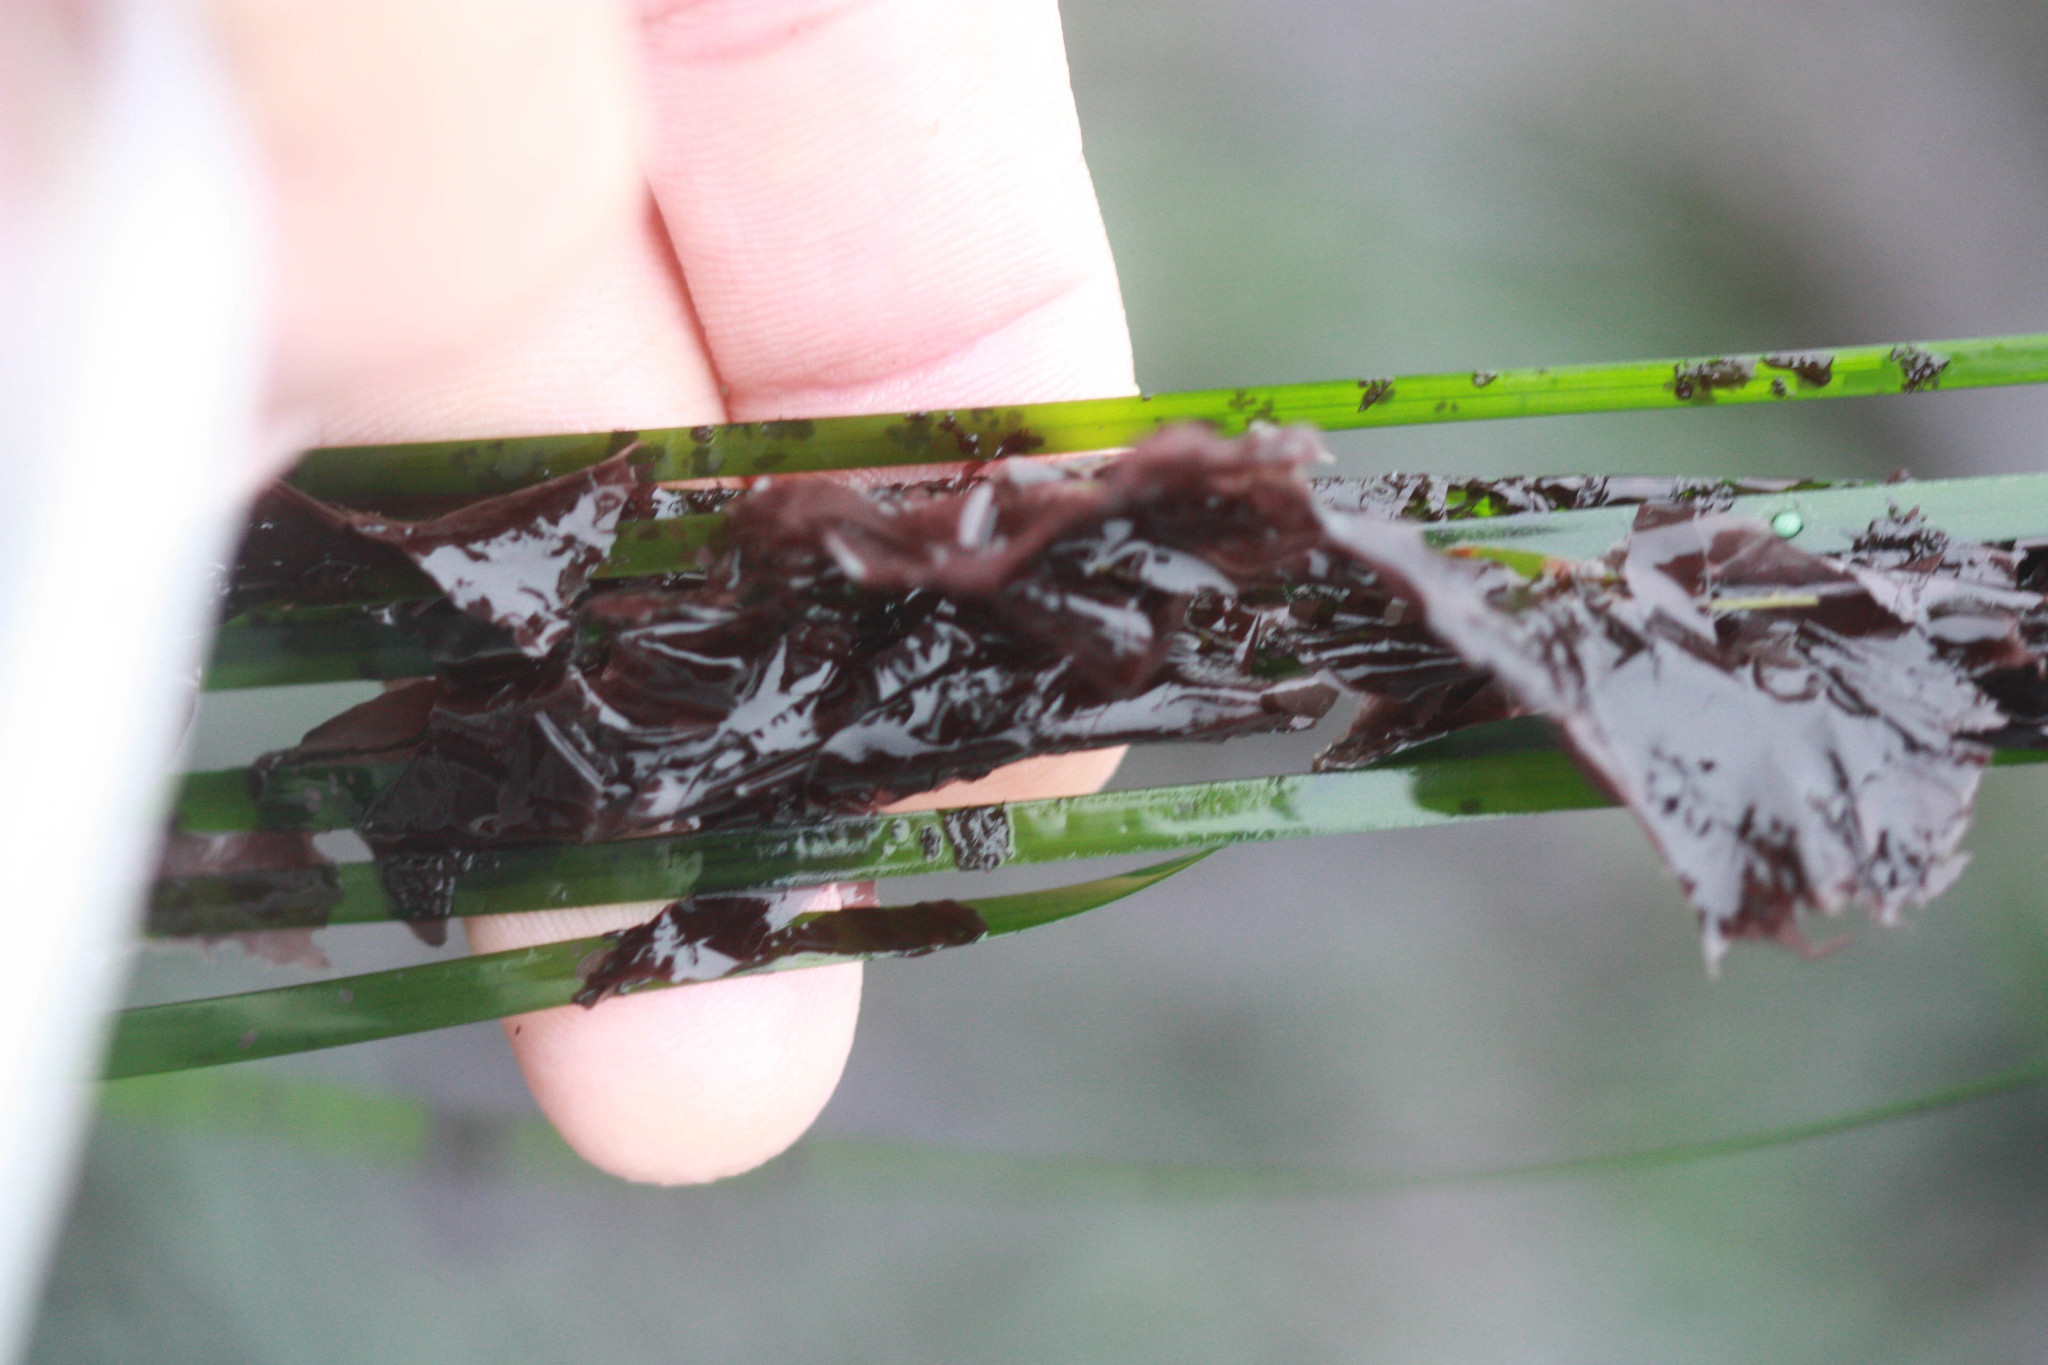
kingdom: Plantae
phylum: Rhodophyta
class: Compsopogonophyceae
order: Erythropeltidales
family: Erythrotrichiaceae
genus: Smithora
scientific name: Smithora naiadum
